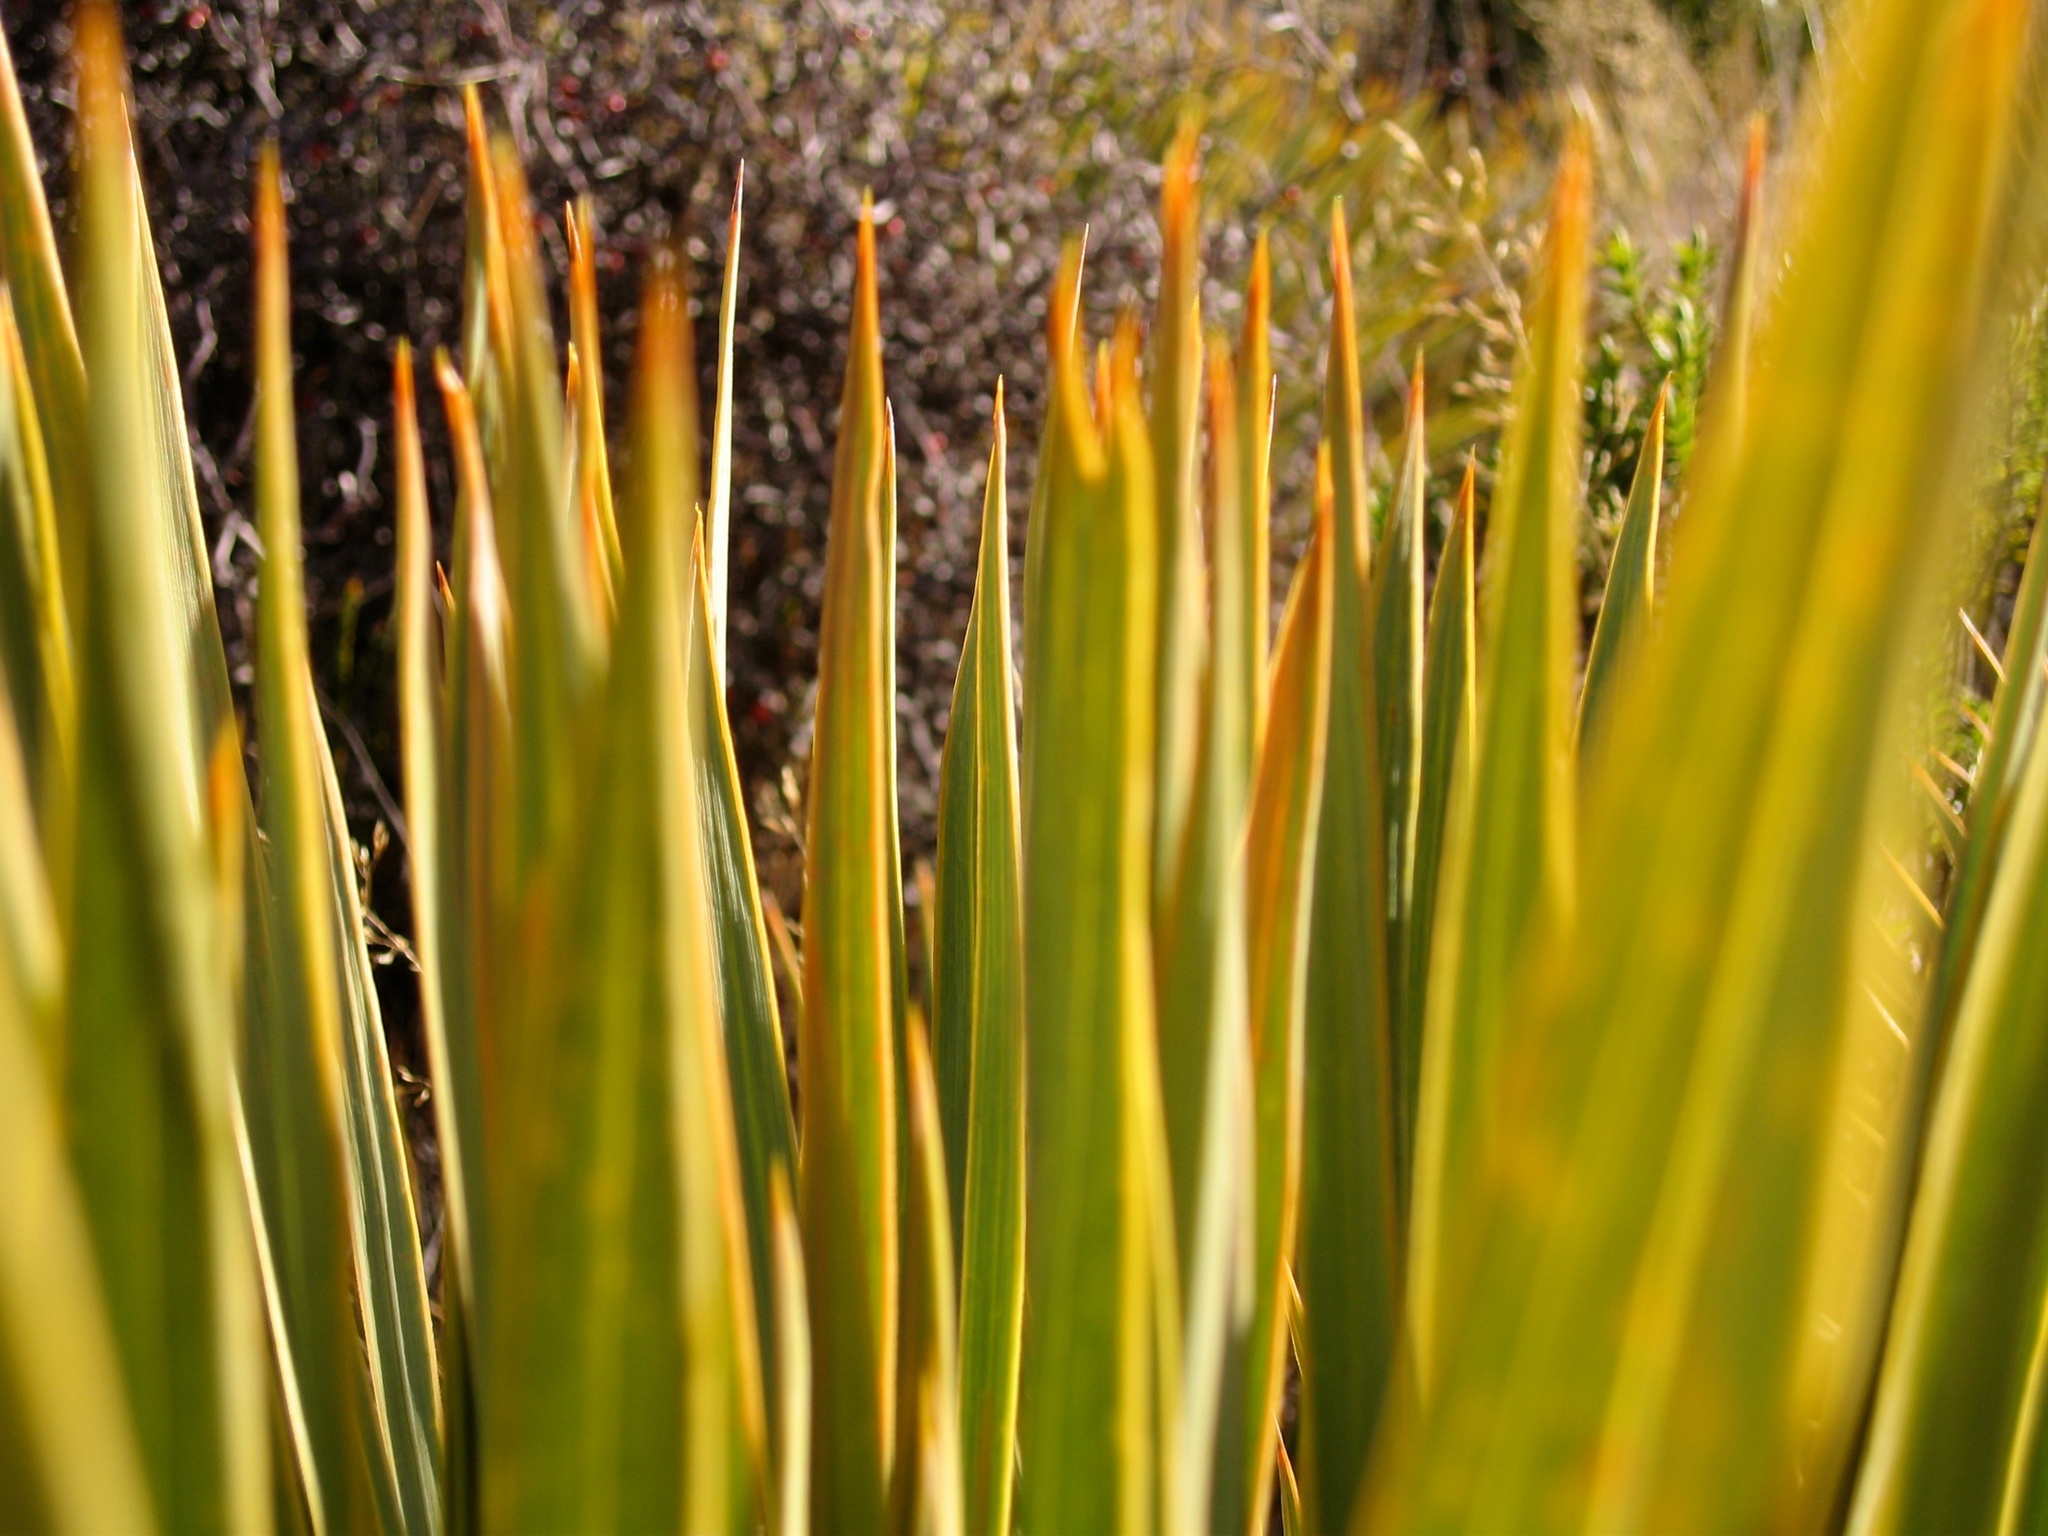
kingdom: Plantae
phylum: Tracheophyta
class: Magnoliopsida
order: Apiales
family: Apiaceae
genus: Aciphylla
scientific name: Aciphylla aurea
